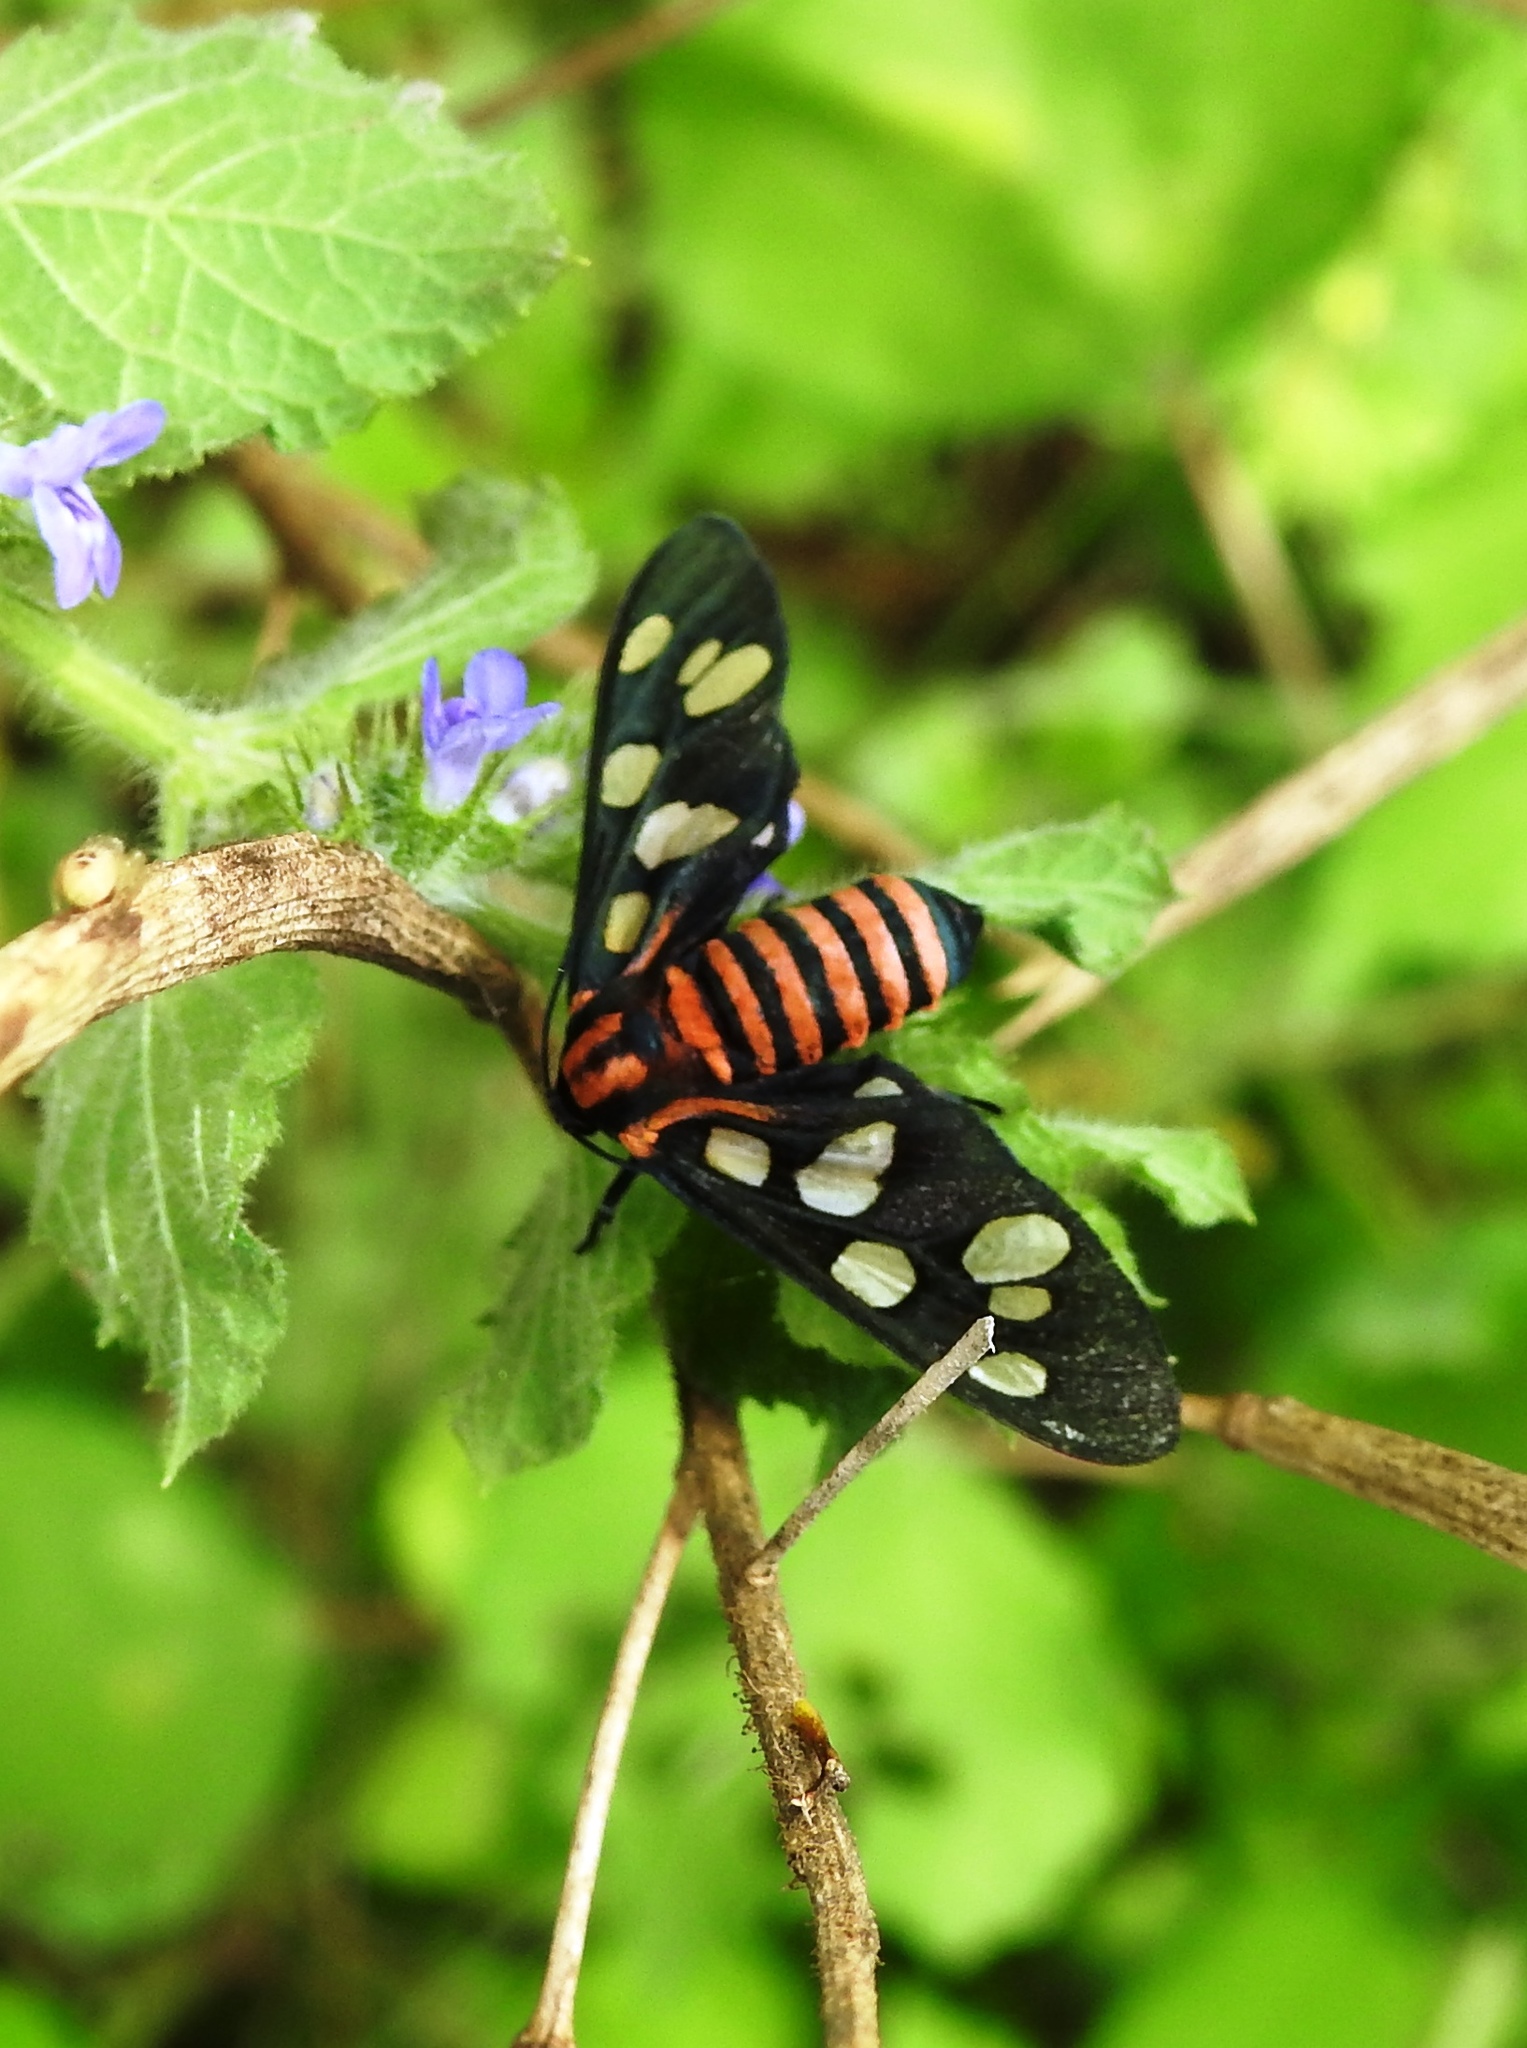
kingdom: Animalia
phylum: Arthropoda
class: Insecta
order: Lepidoptera
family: Erebidae
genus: Amata
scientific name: Amata passalis
